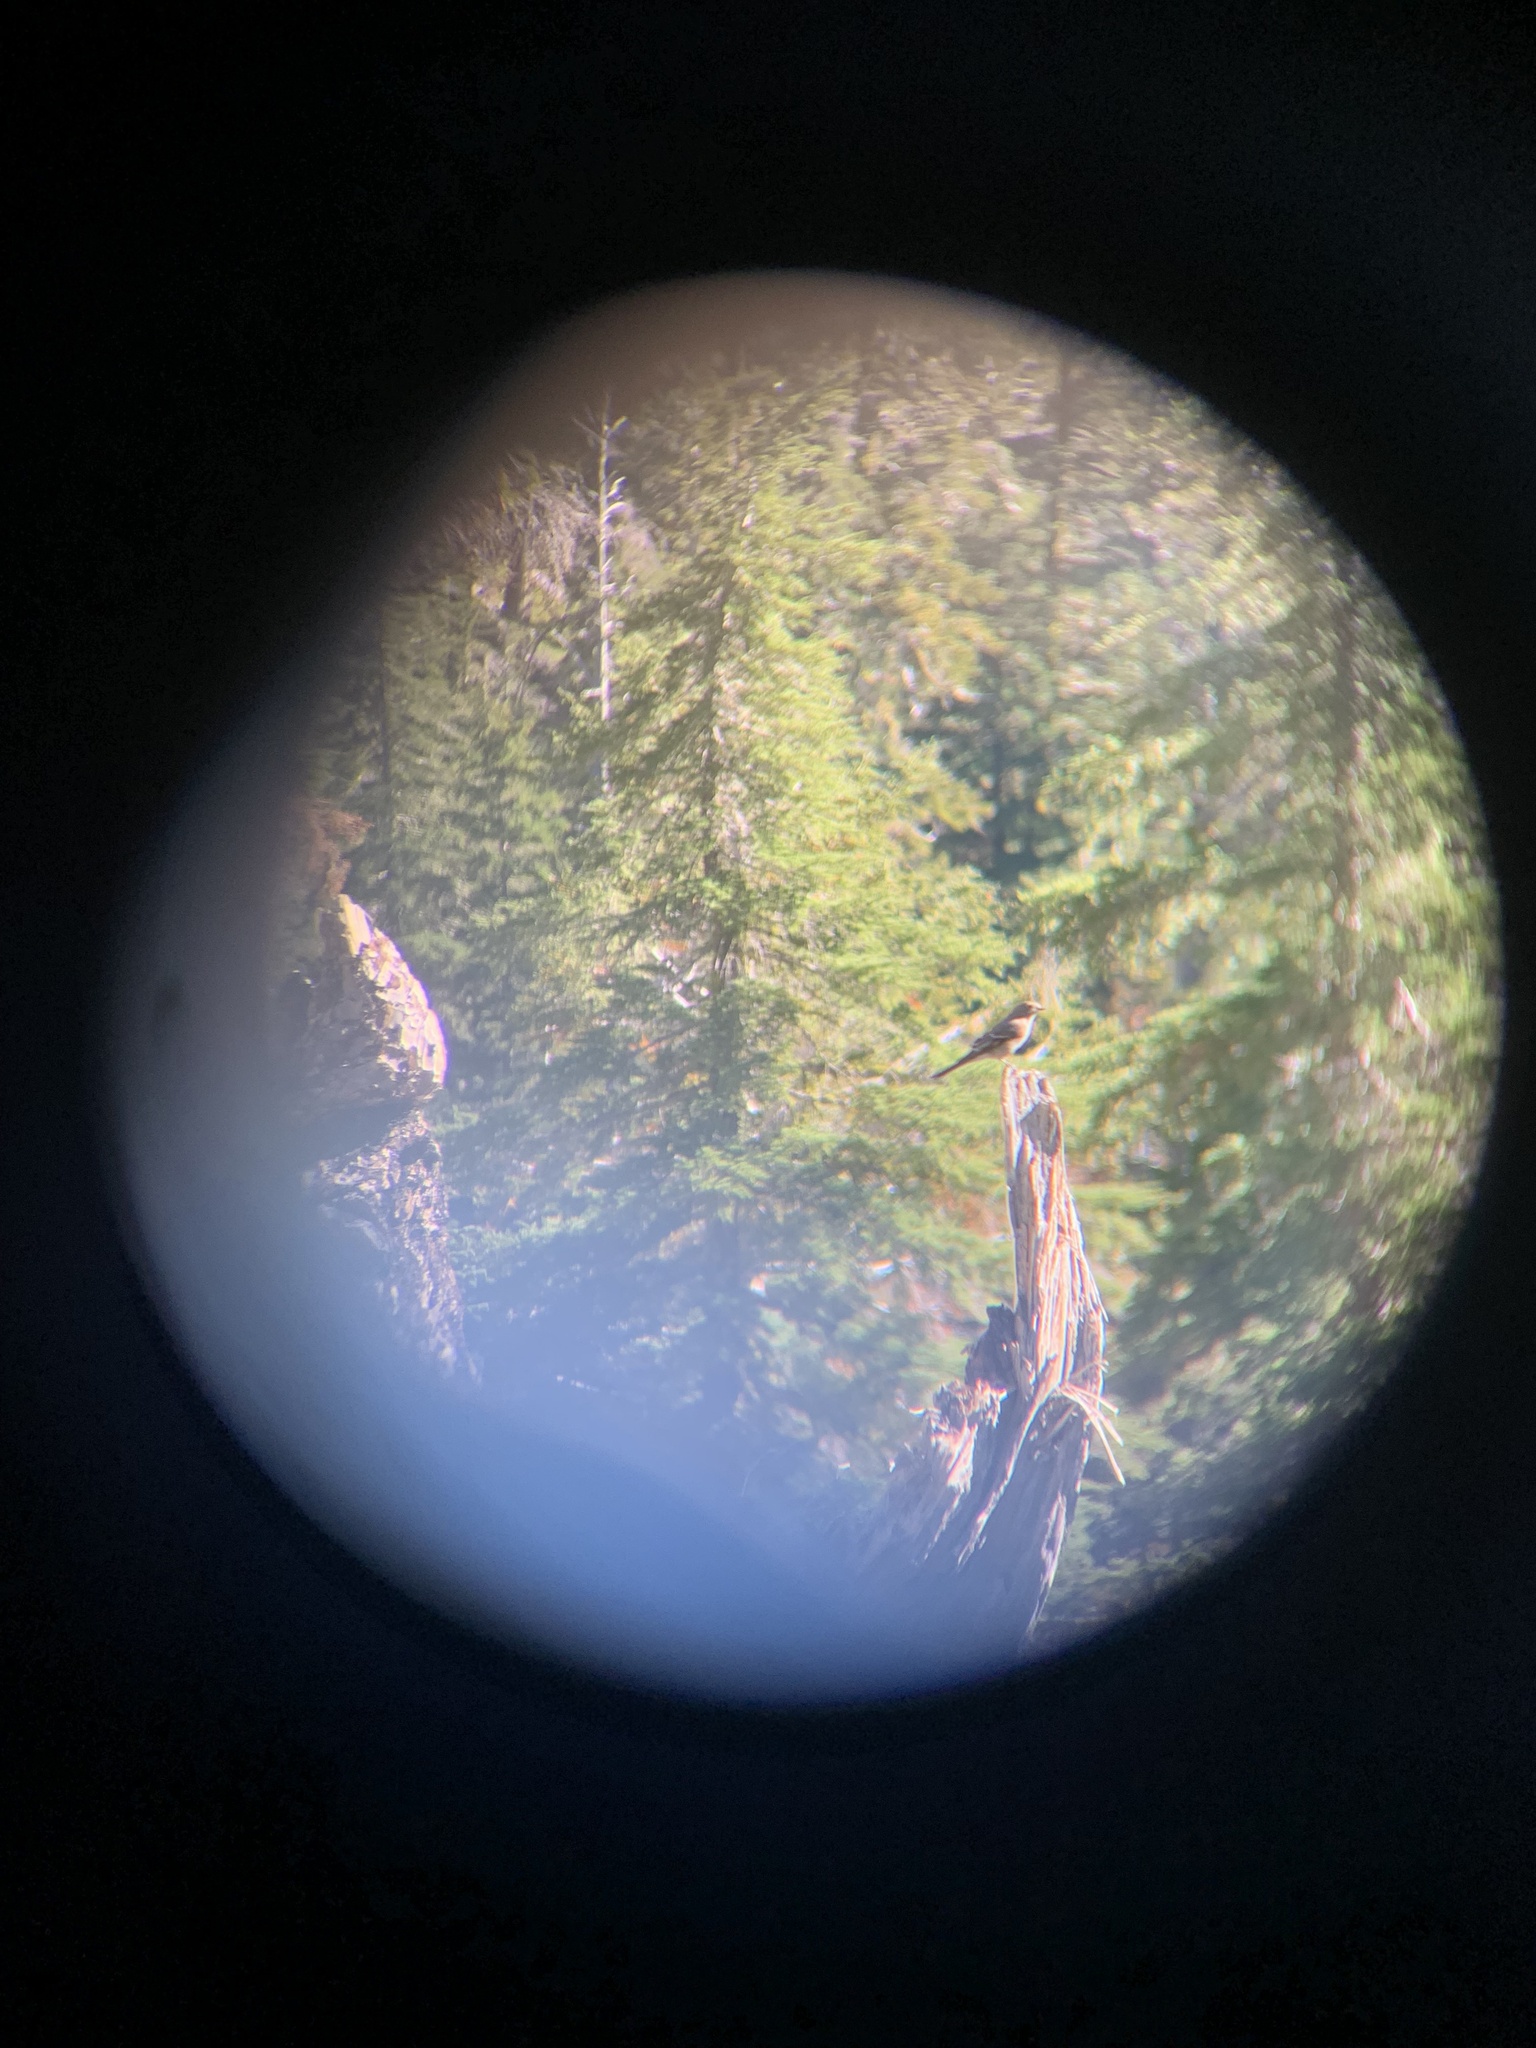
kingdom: Animalia
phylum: Chordata
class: Aves
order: Passeriformes
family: Turdidae
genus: Myadestes
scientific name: Myadestes townsendi
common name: Townsend's solitaire
